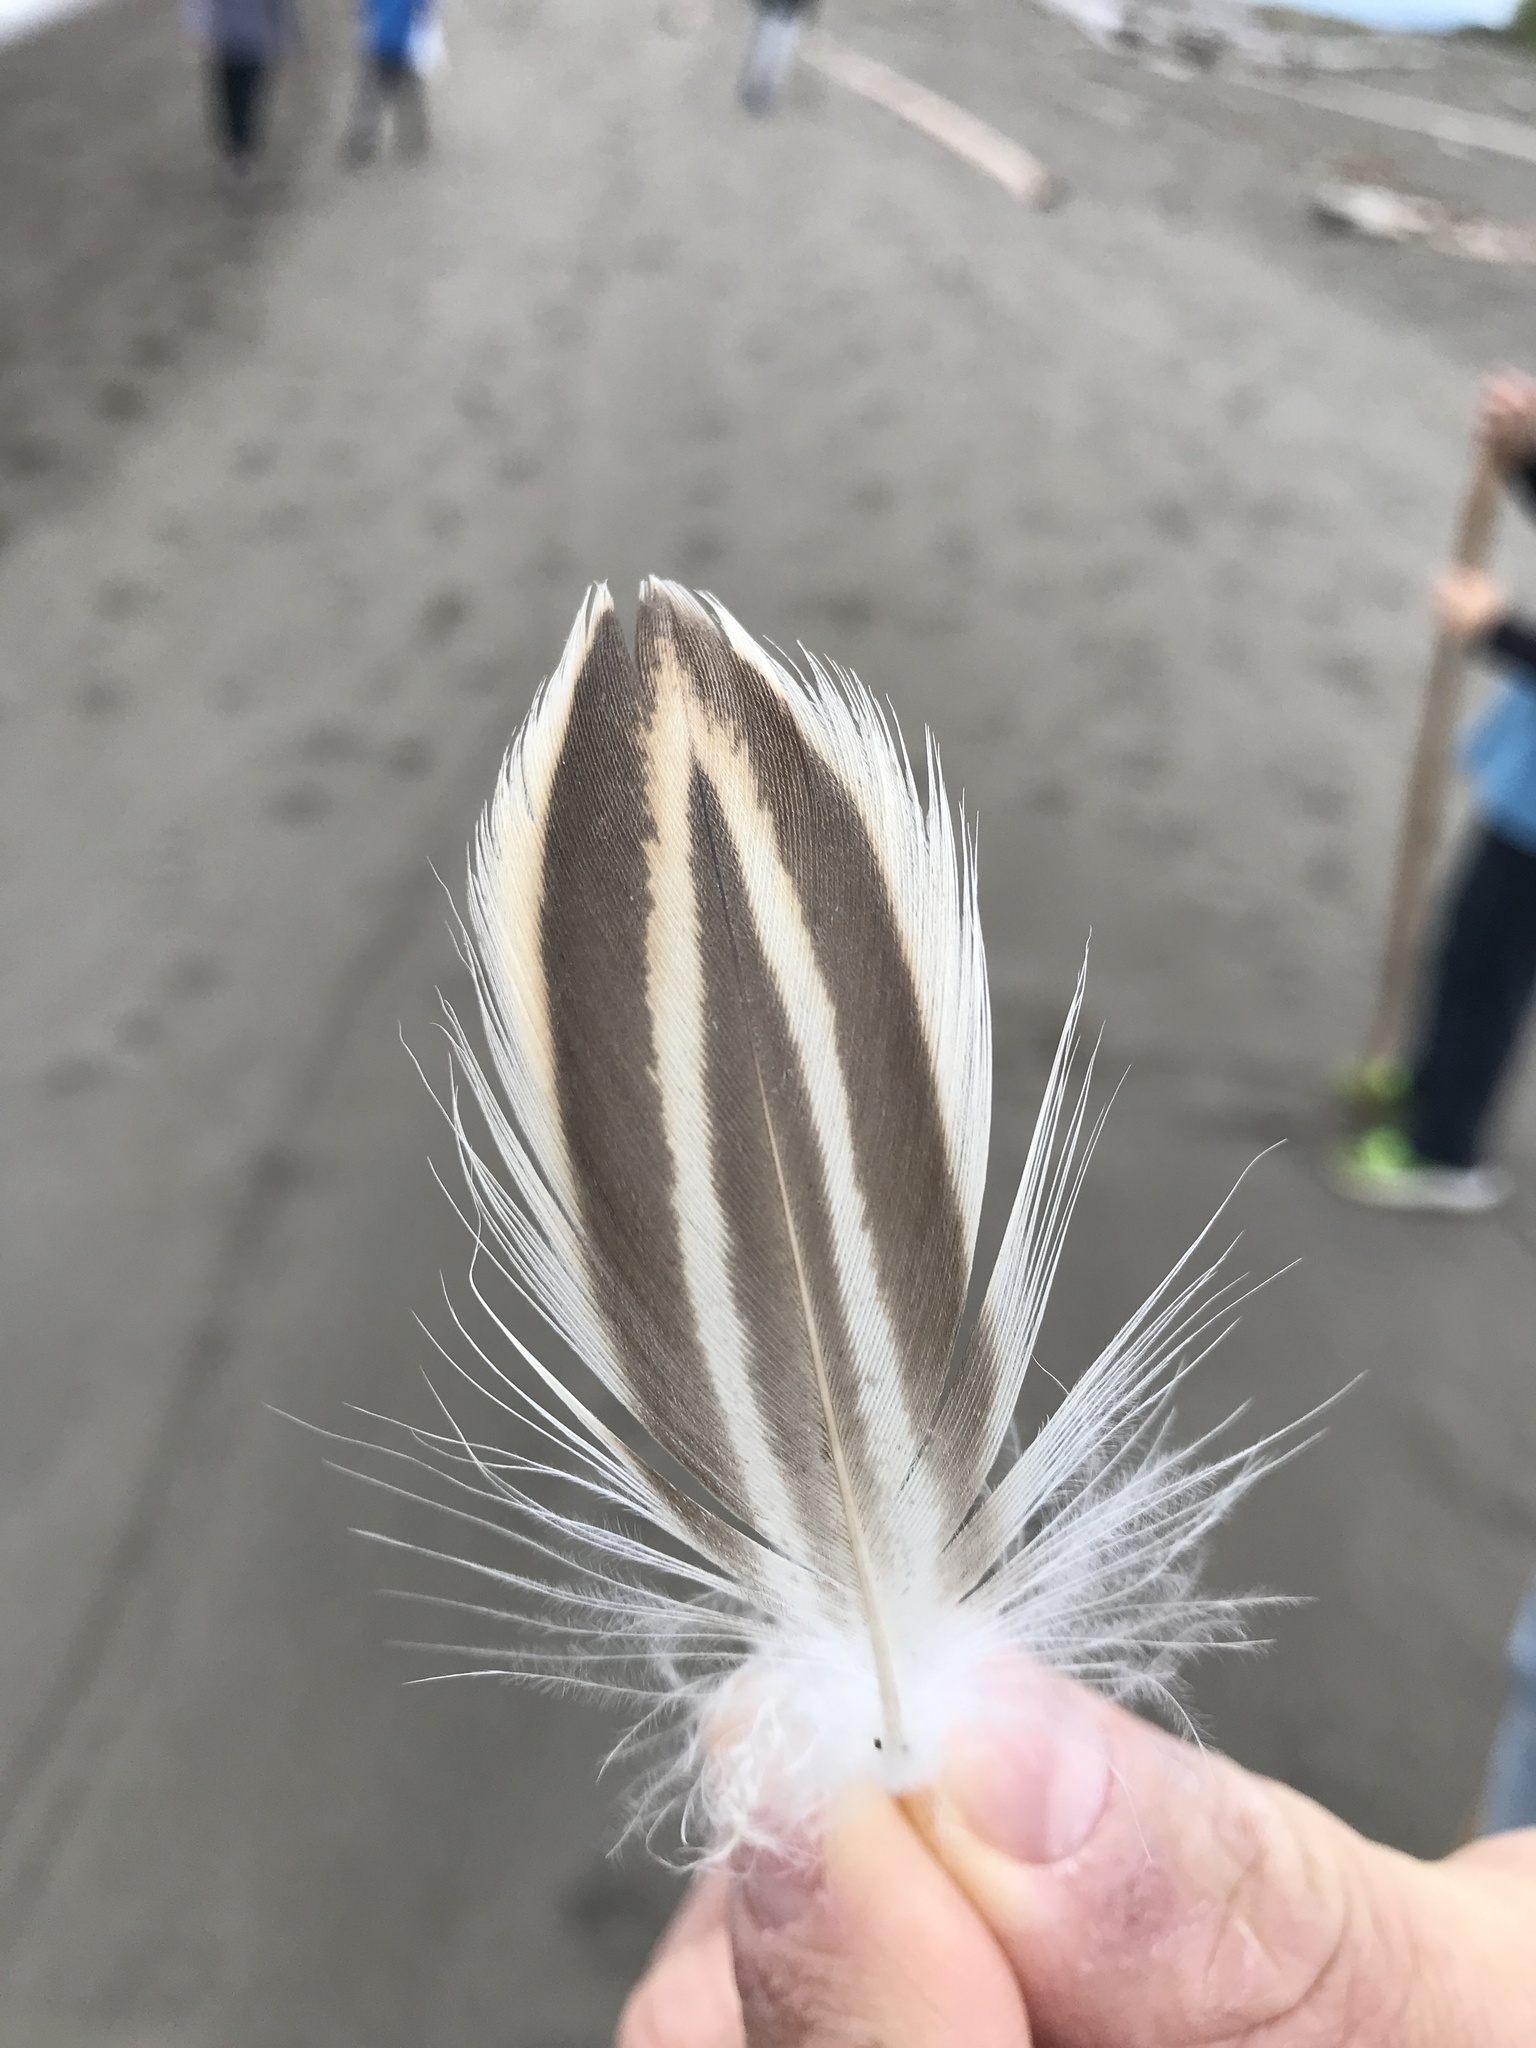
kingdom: Animalia
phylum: Chordata
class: Aves
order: Anseriformes
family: Anatidae
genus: Anas
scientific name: Anas platyrhynchos
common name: Mallard
